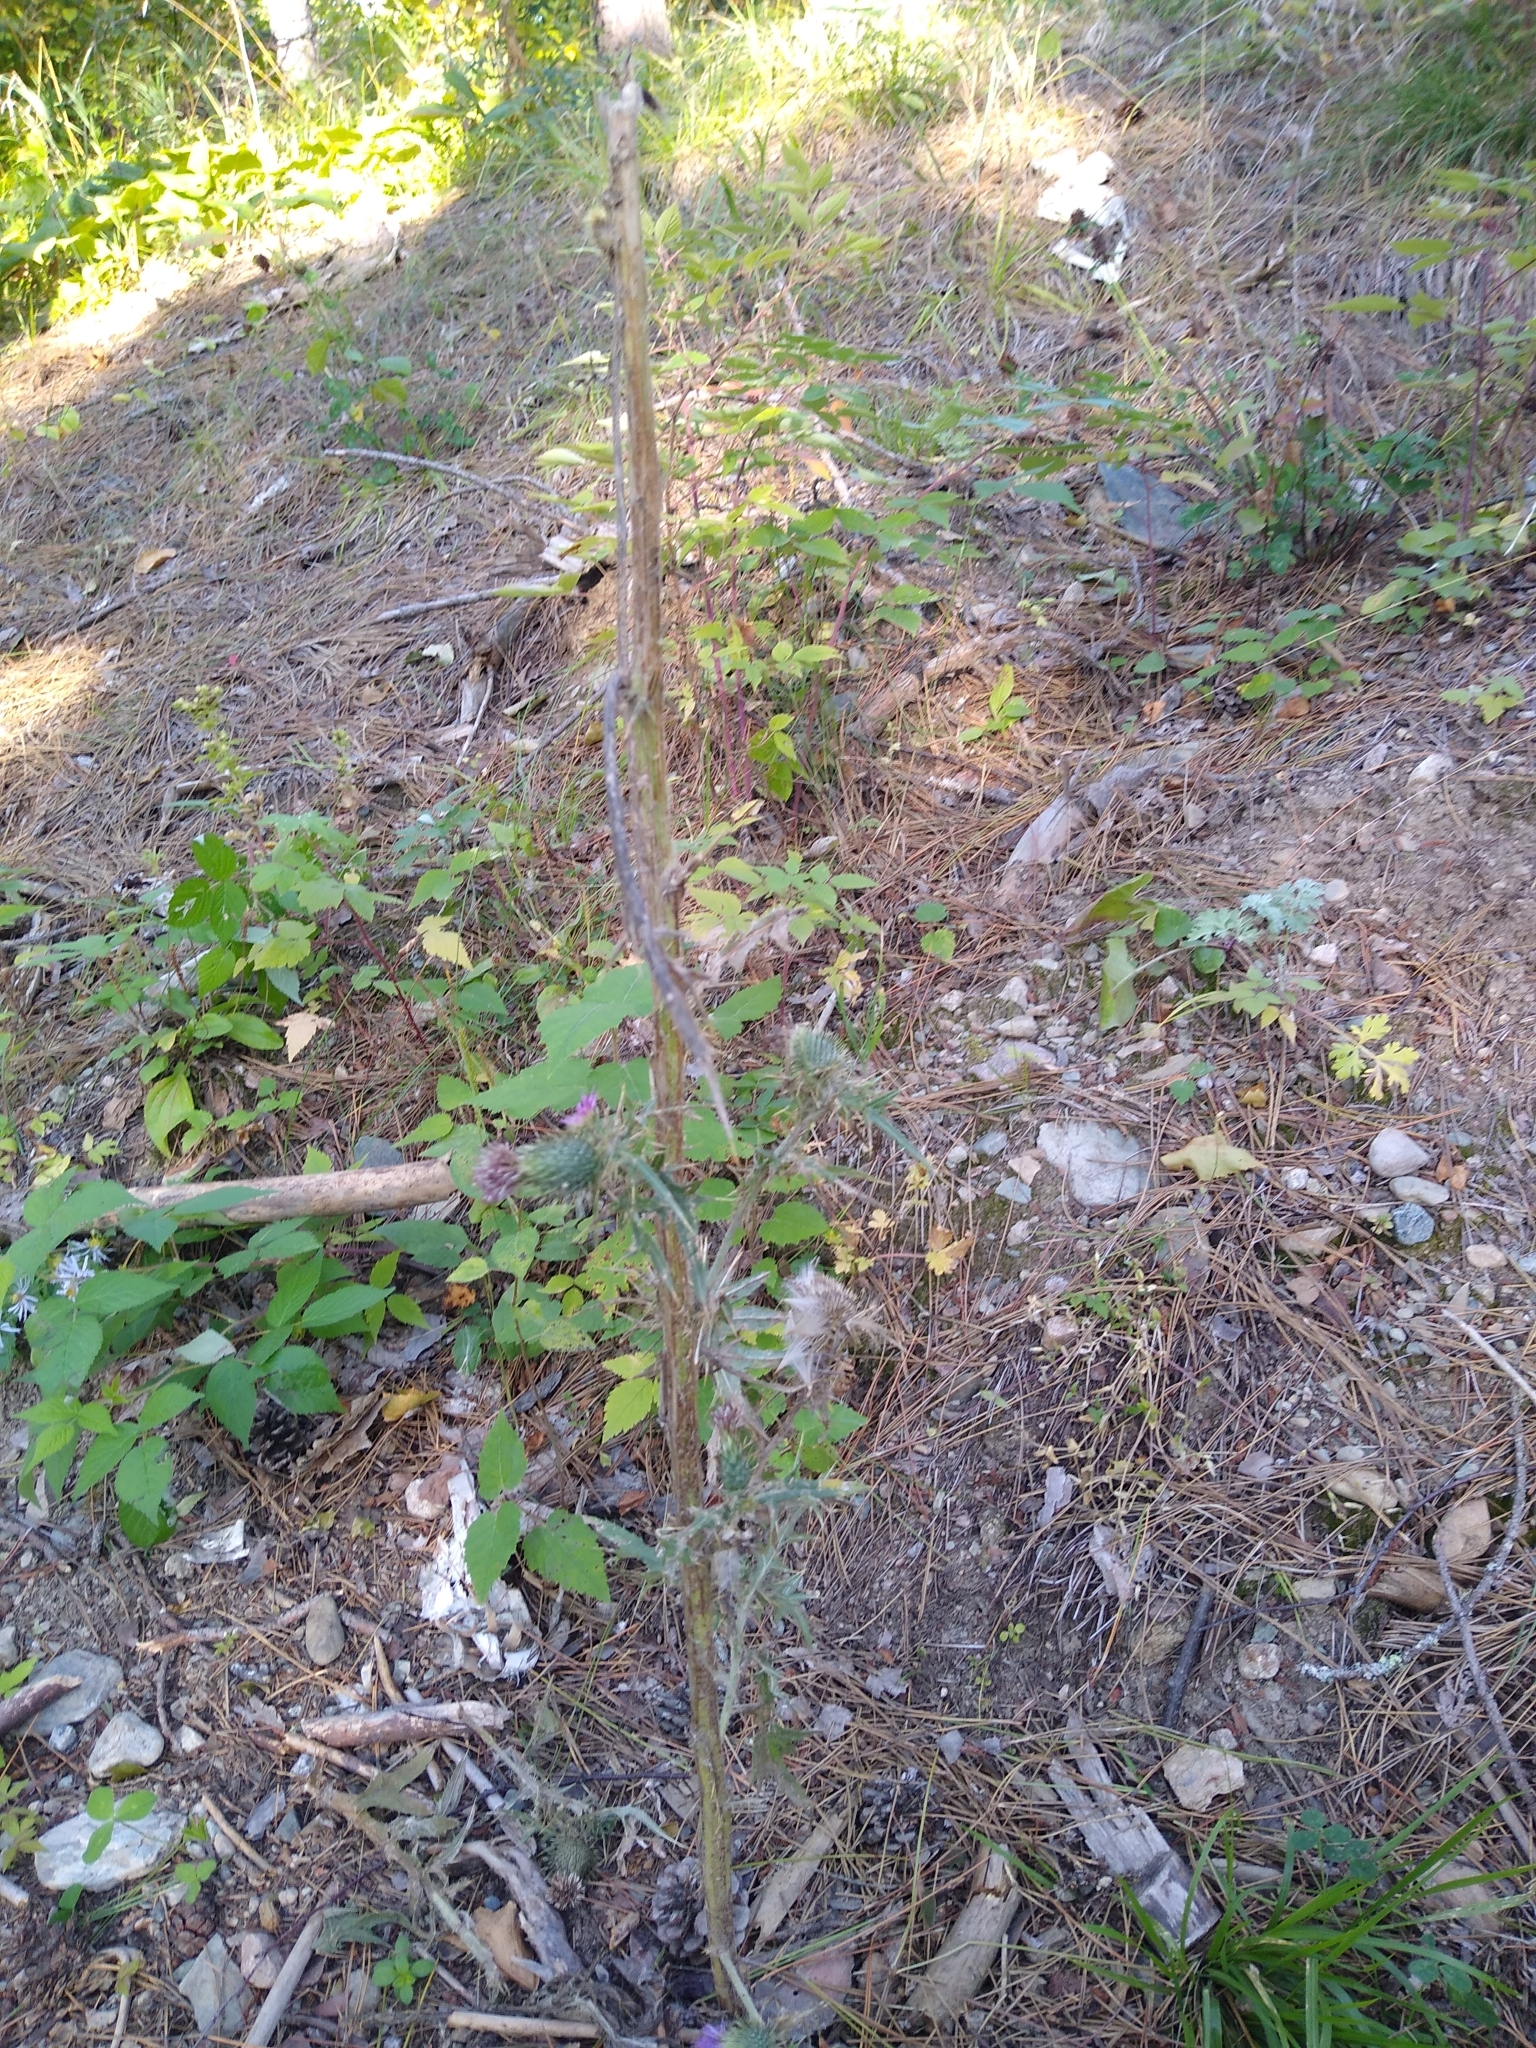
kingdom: Plantae
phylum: Tracheophyta
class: Magnoliopsida
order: Asterales
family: Asteraceae
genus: Cirsium
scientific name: Cirsium vulgare
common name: Bull thistle
